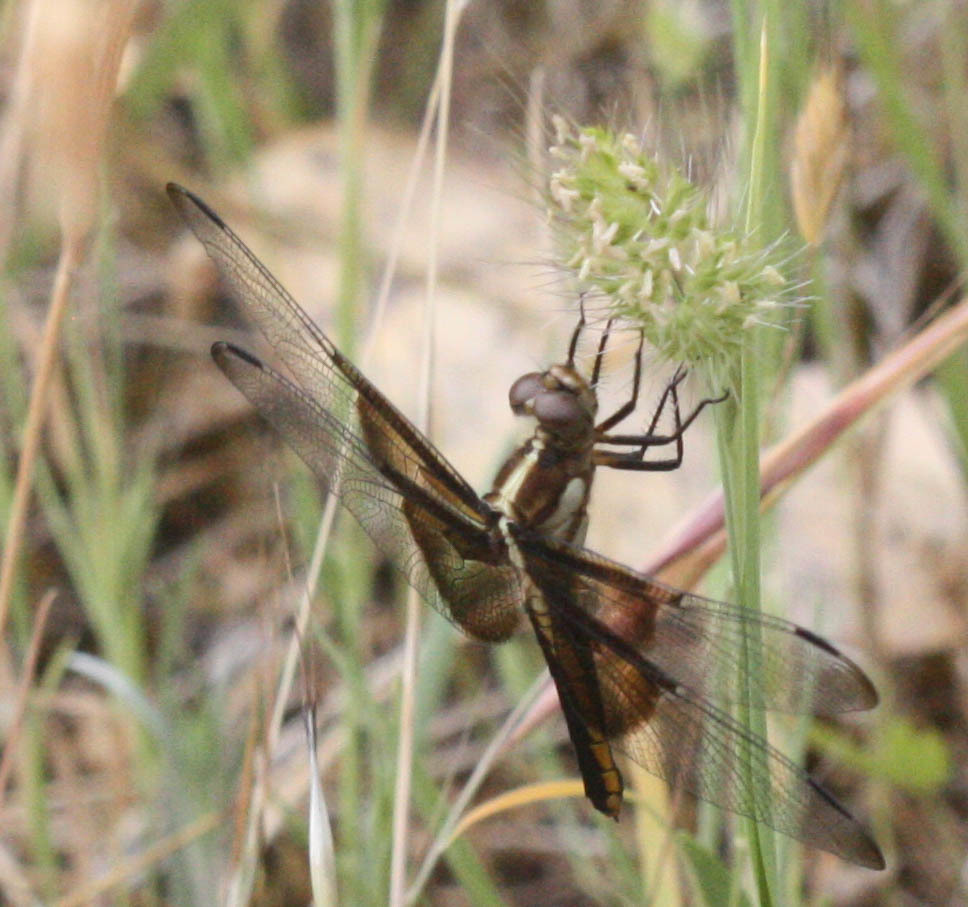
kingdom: Animalia
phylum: Arthropoda
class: Insecta
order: Odonata
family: Libellulidae
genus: Libellula
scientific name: Libellula luctuosa
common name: Widow skimmer
